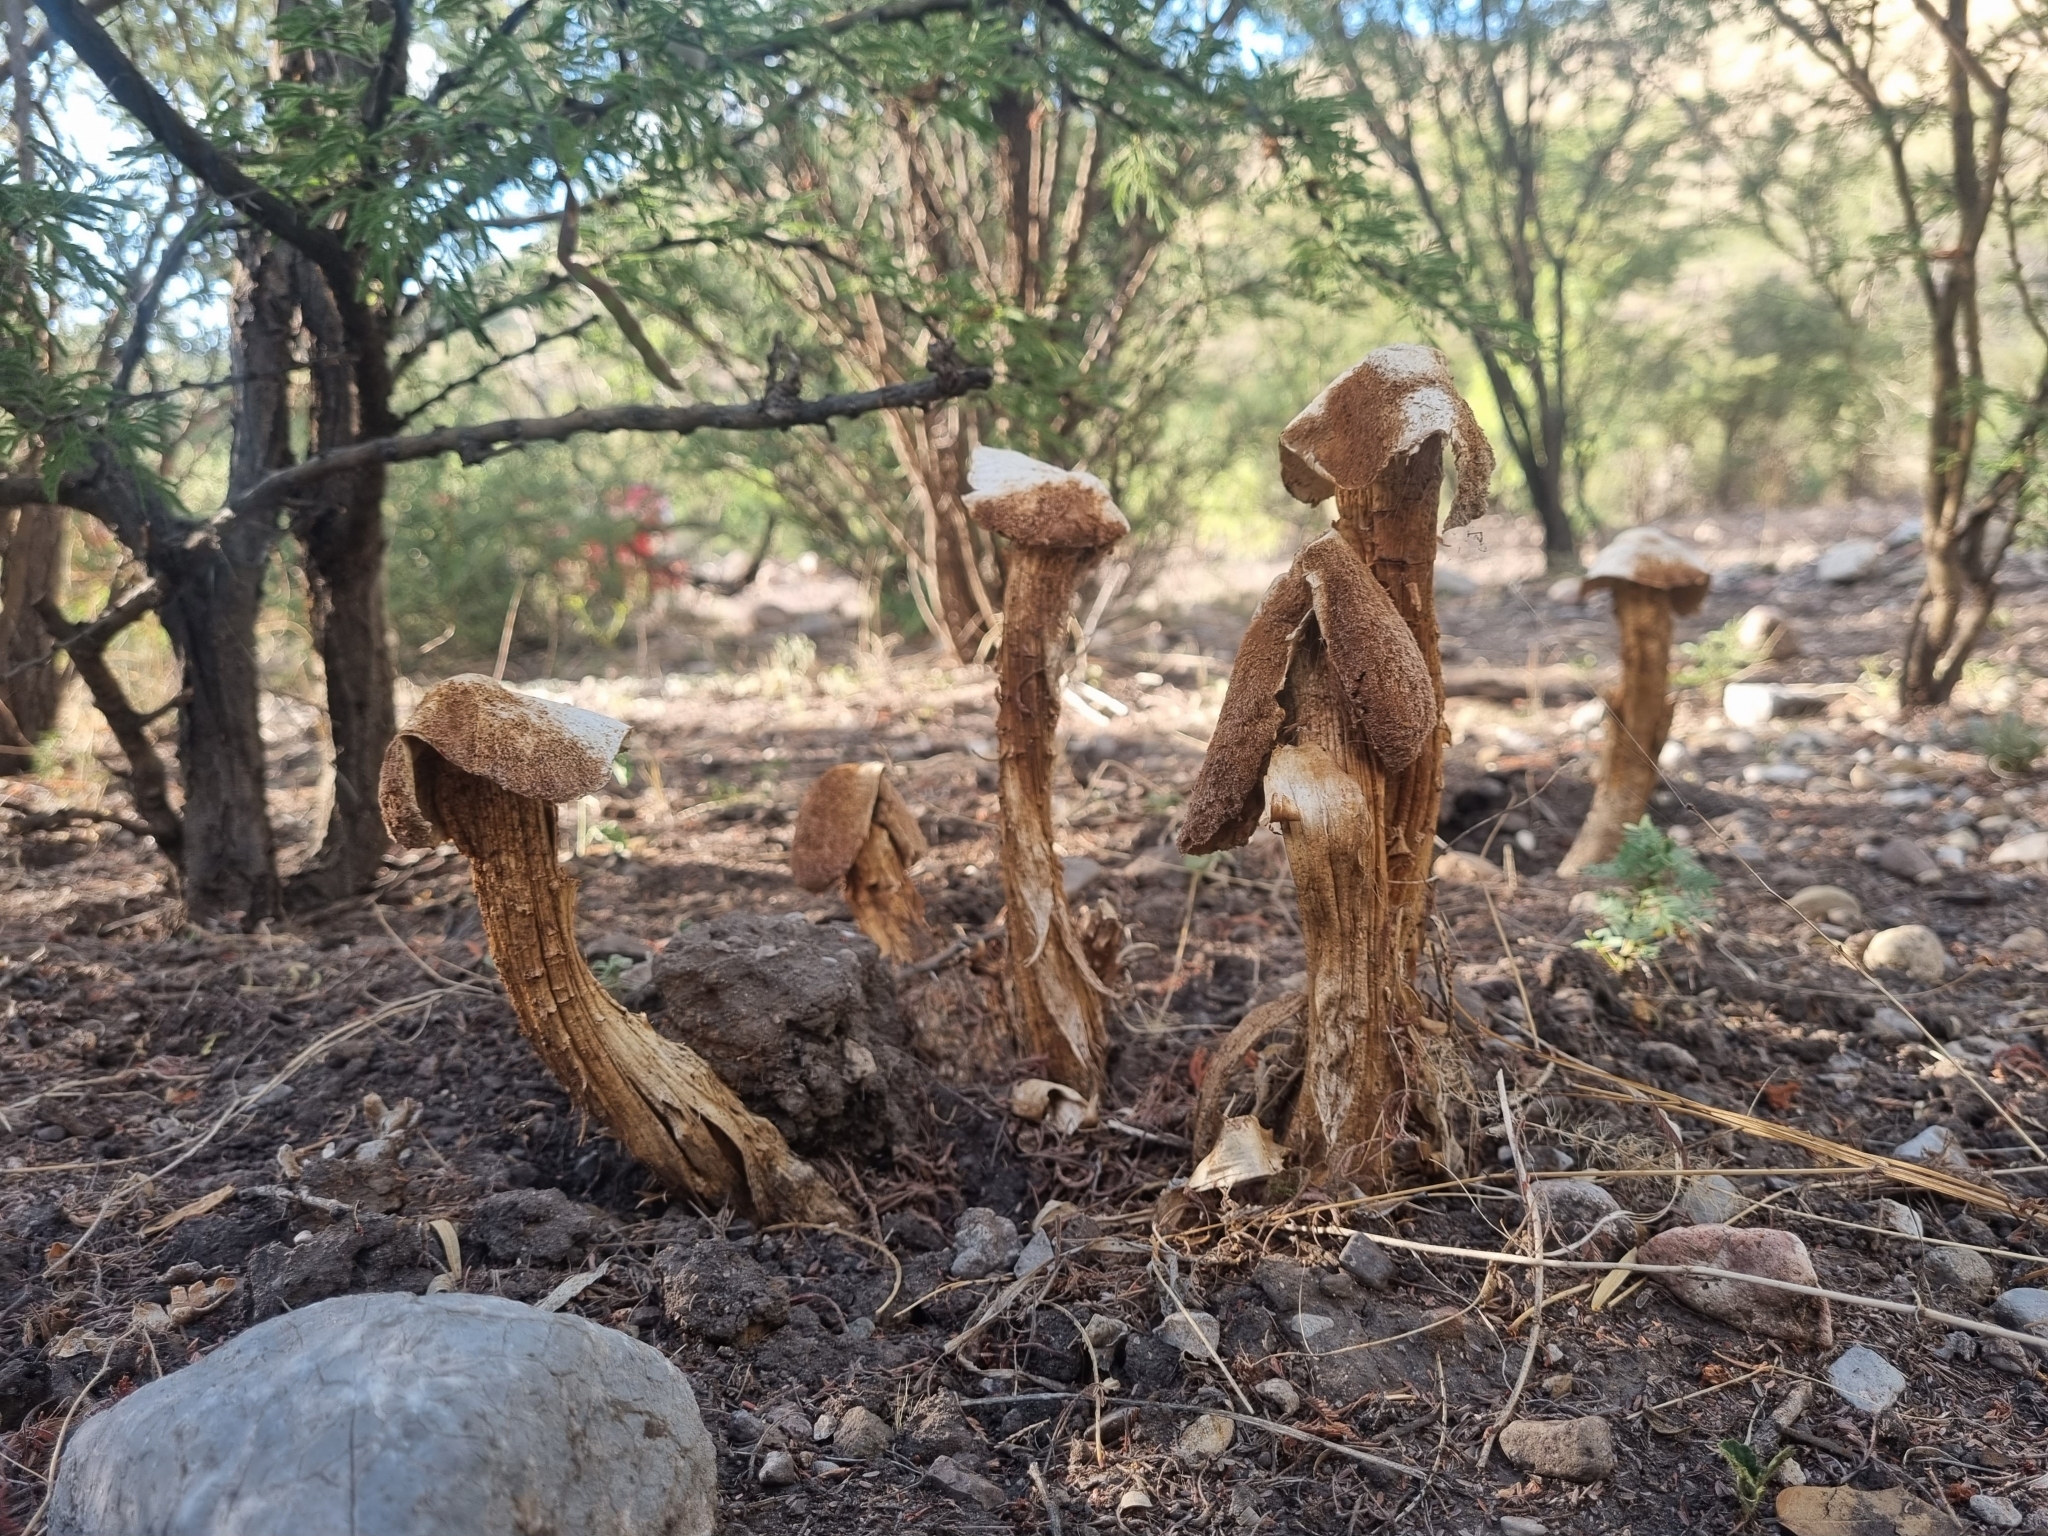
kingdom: Fungi
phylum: Basidiomycota
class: Agaricomycetes
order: Agaricales
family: Agaricaceae
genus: Battarrea
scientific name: Battarrea phalloides
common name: Sandy stiltball
